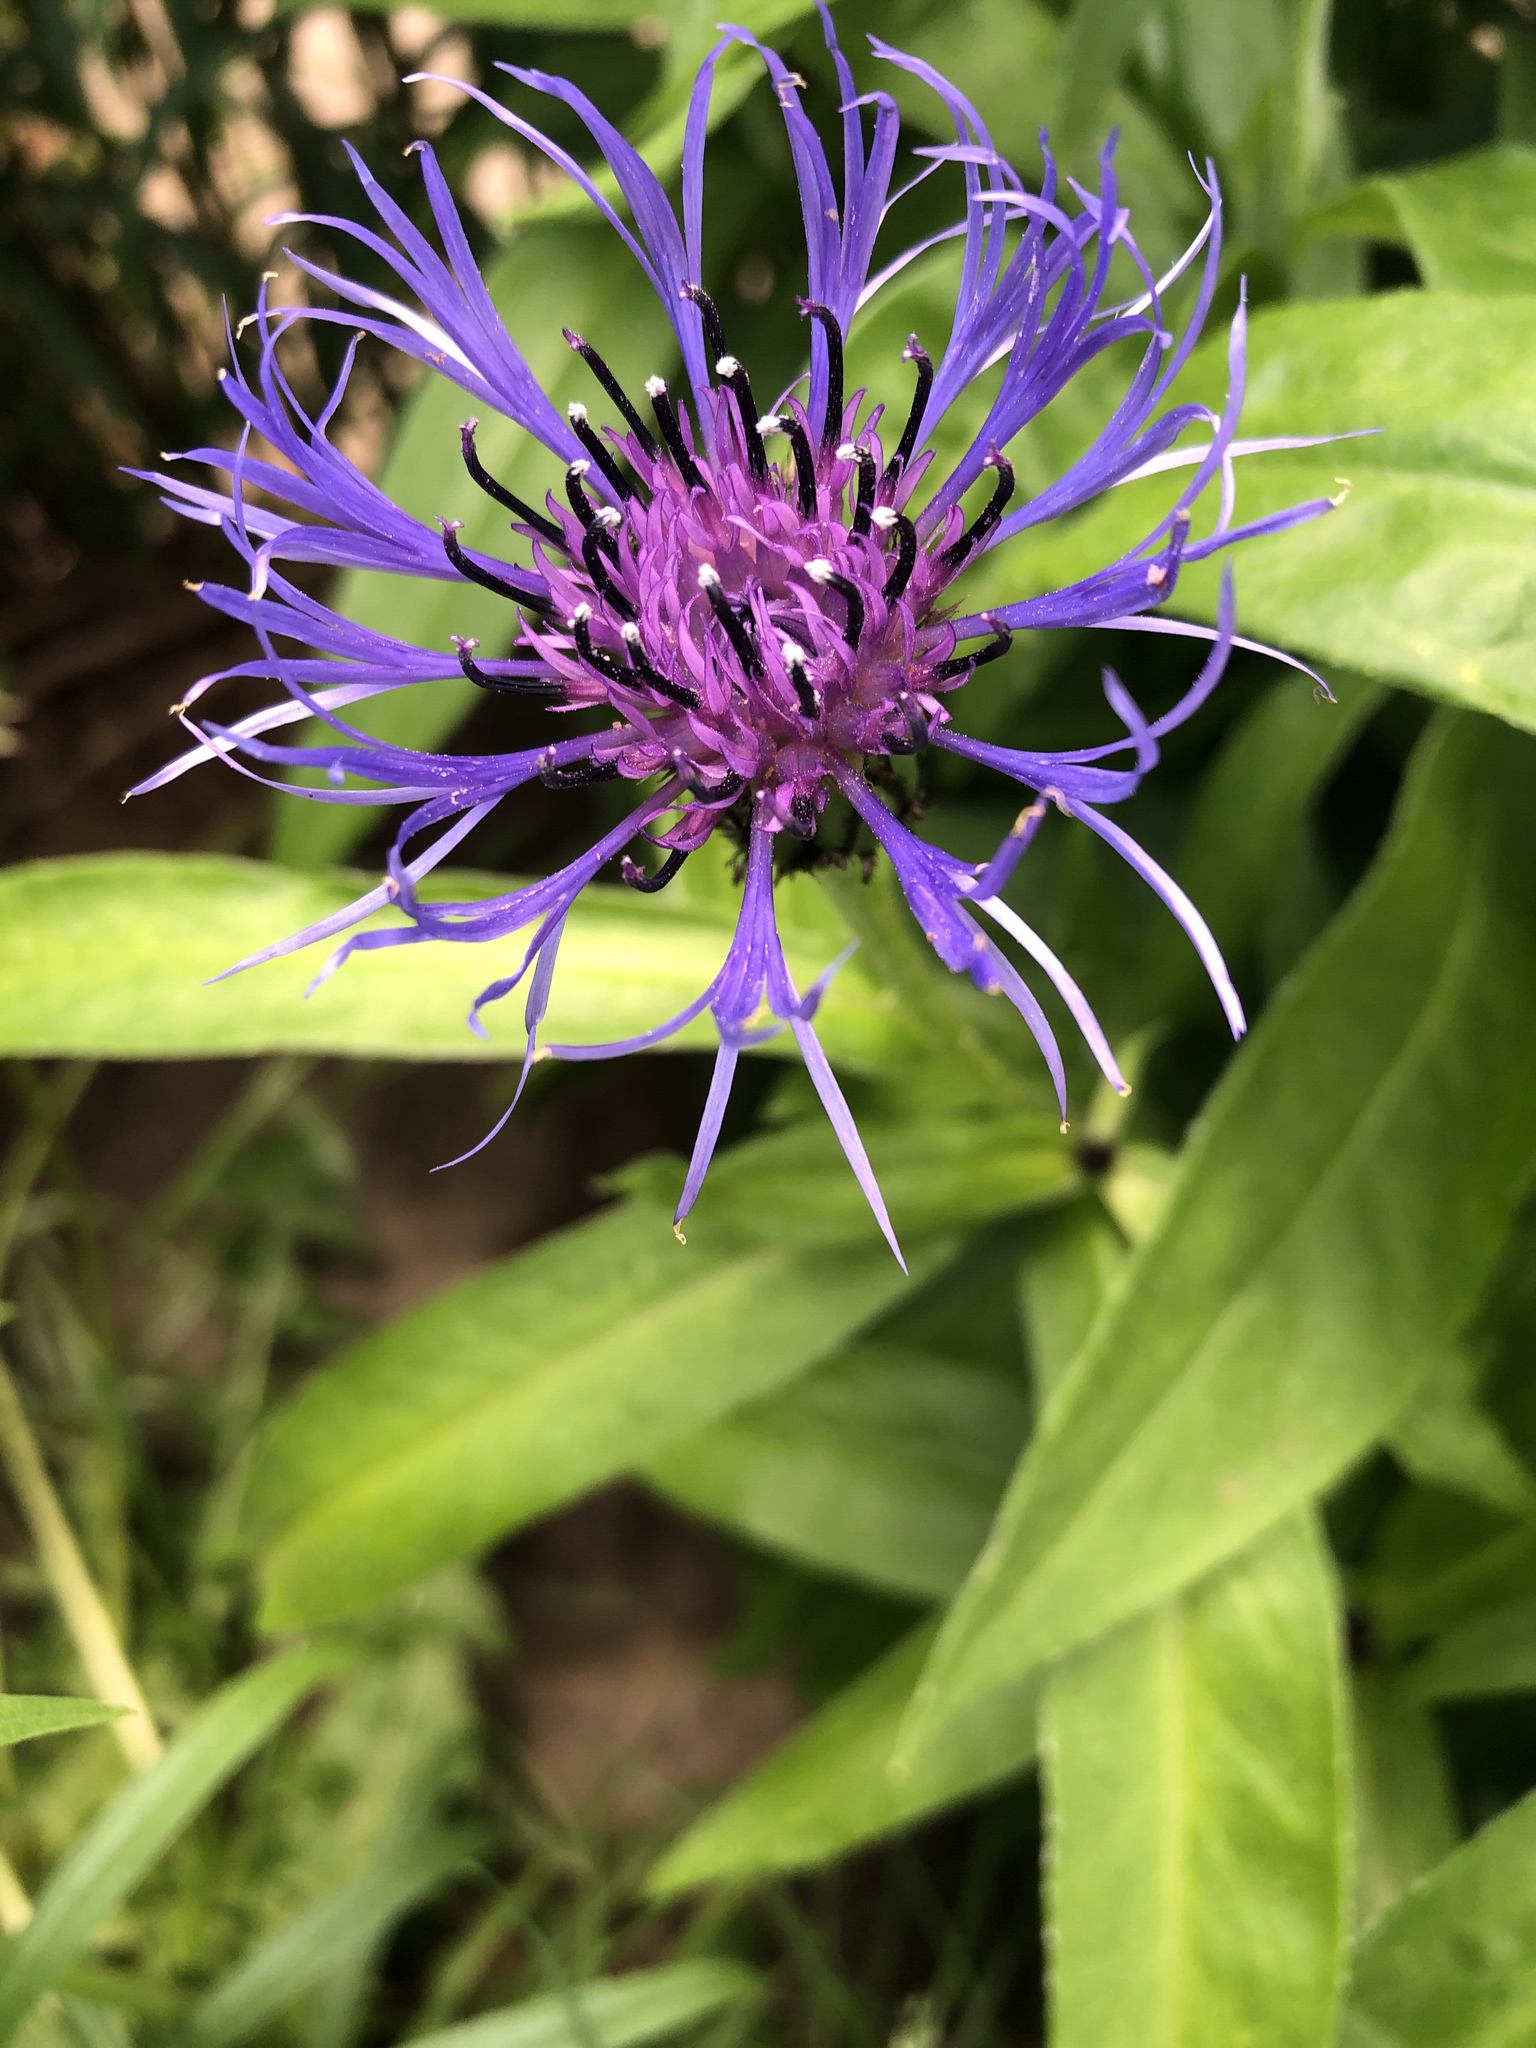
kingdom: Plantae
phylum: Tracheophyta
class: Magnoliopsida
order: Asterales
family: Asteraceae
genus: Centaurea
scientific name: Centaurea montana
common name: Perennial cornflower
